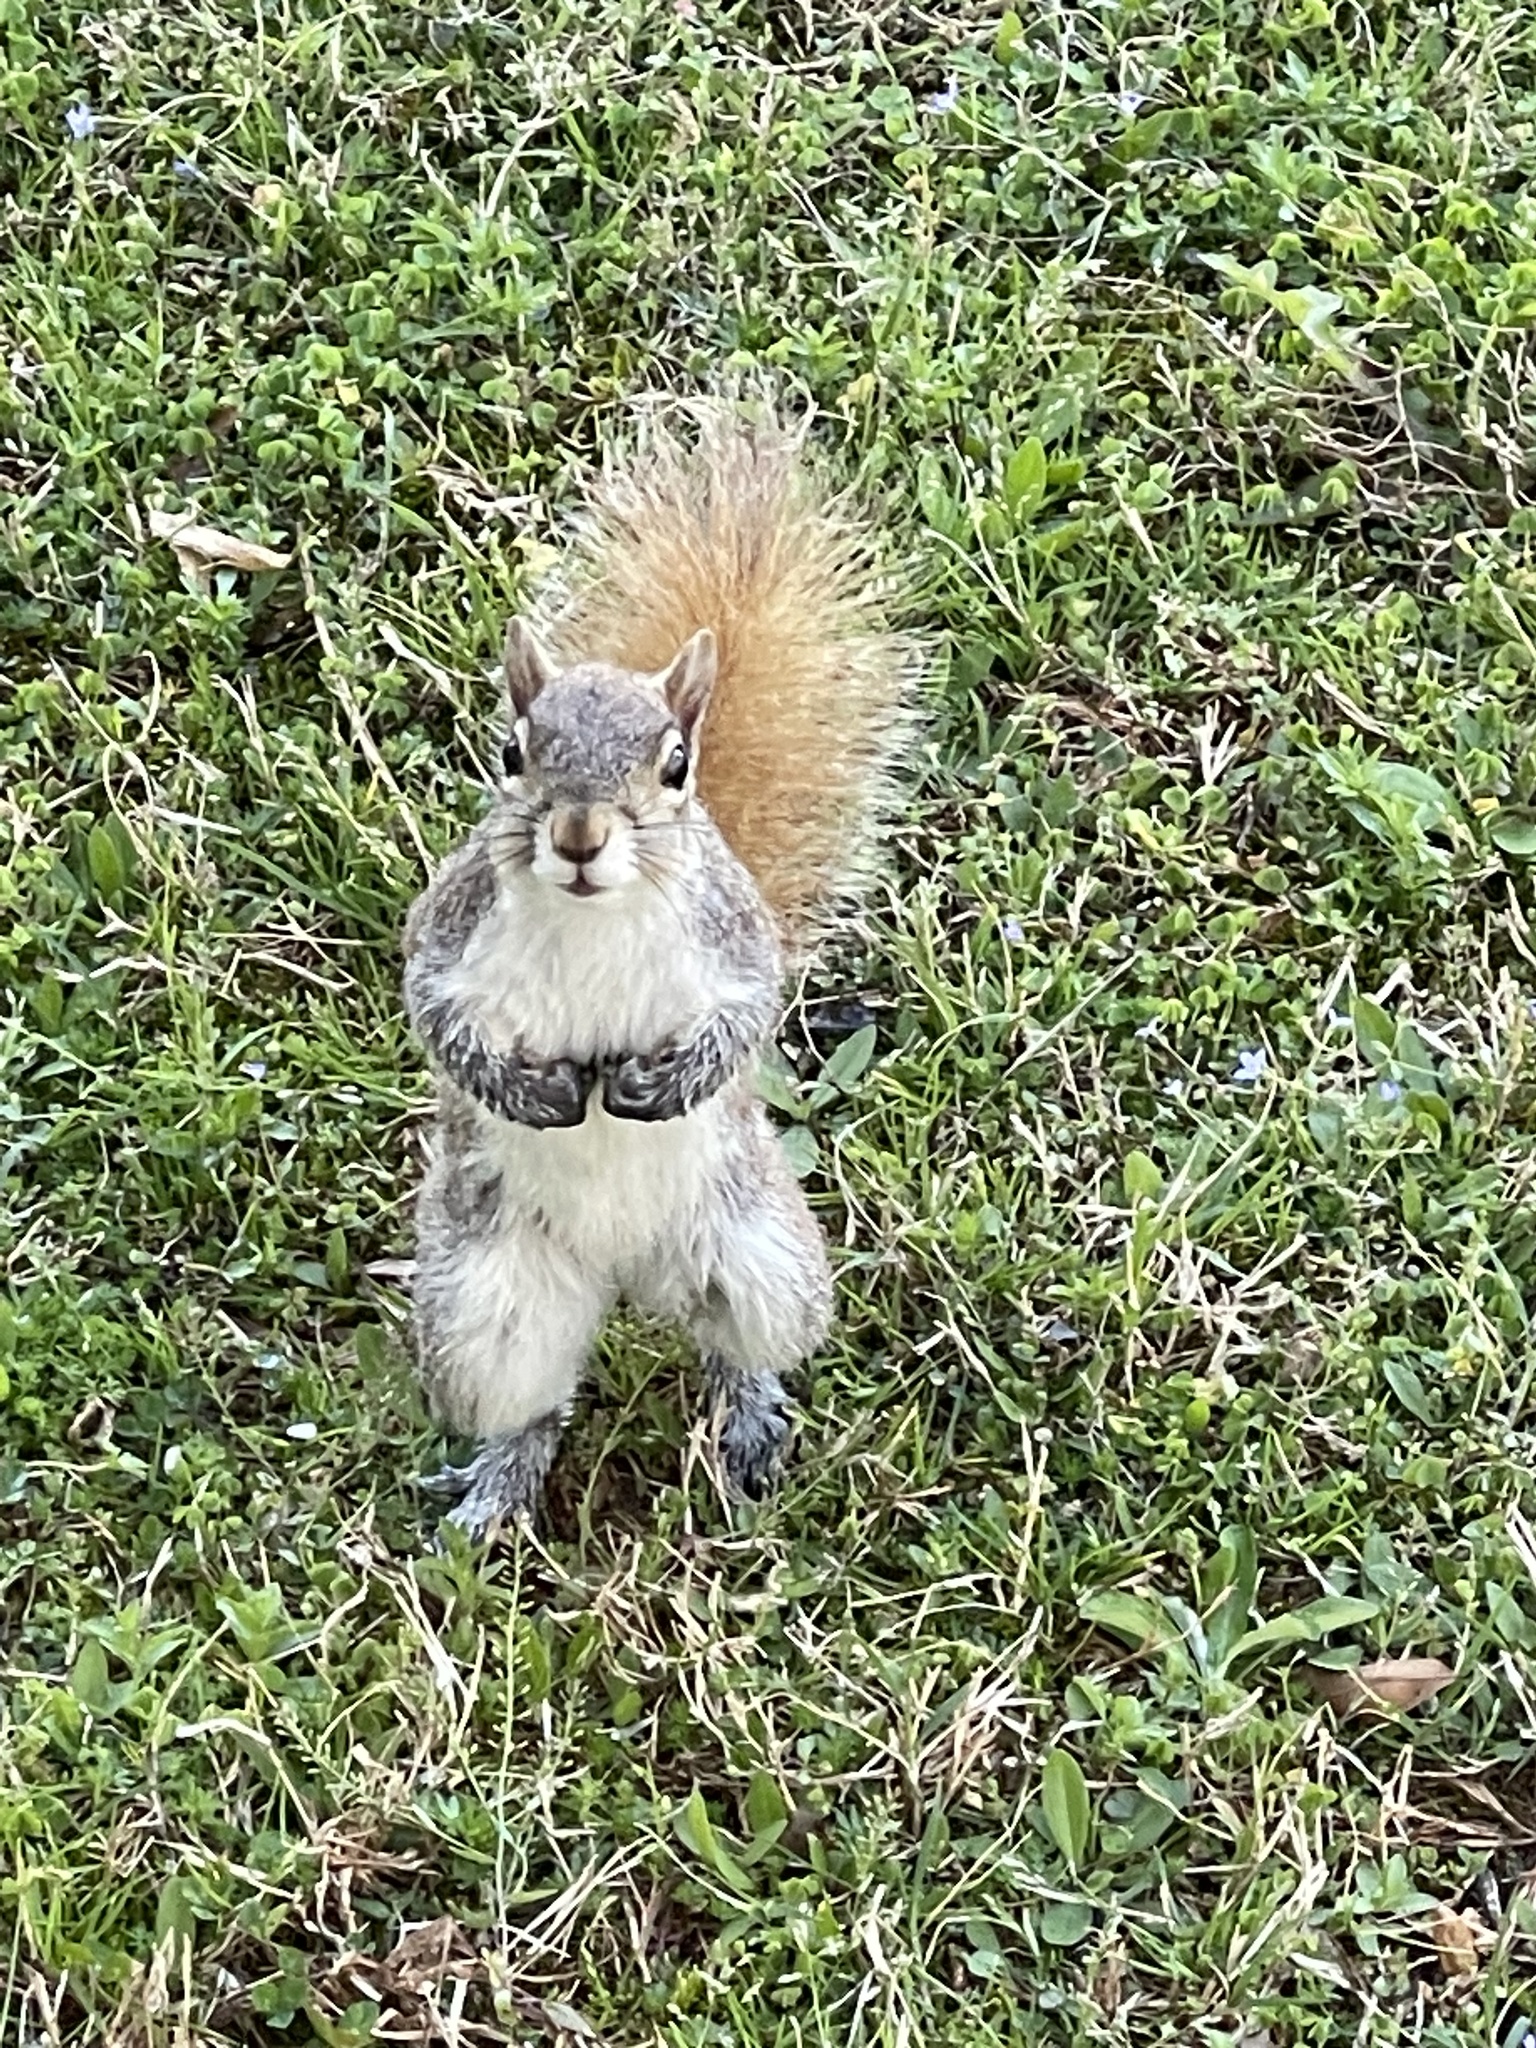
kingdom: Animalia
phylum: Chordata
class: Mammalia
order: Rodentia
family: Sciuridae
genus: Sciurus
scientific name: Sciurus carolinensis
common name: Eastern gray squirrel
